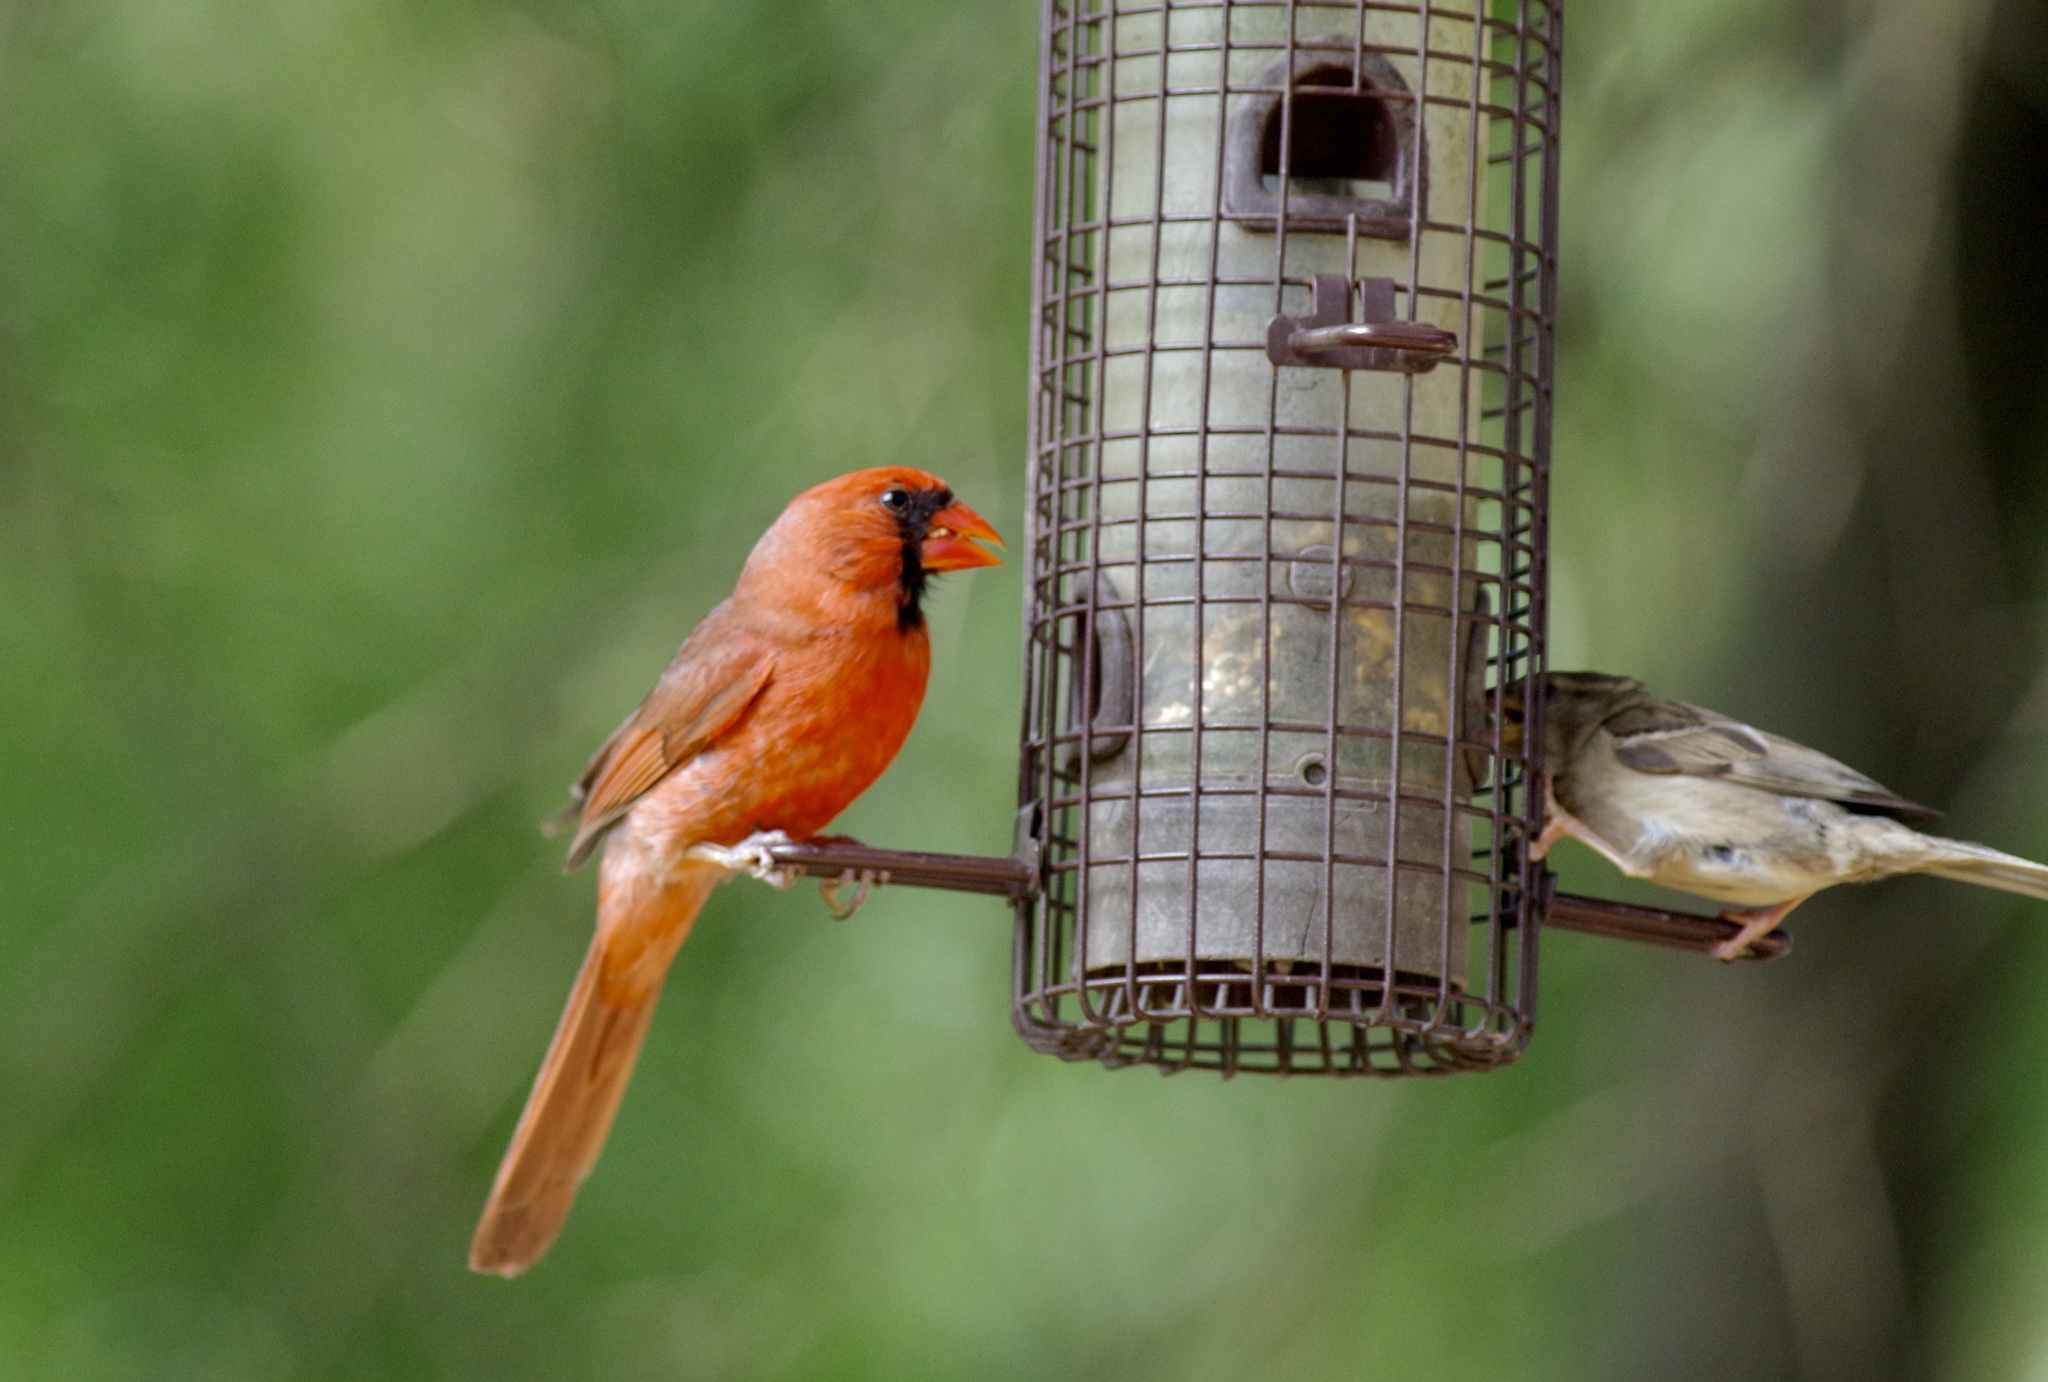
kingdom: Animalia
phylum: Chordata
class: Aves
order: Passeriformes
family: Cardinalidae
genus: Cardinalis
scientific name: Cardinalis cardinalis
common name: Northern cardinal
